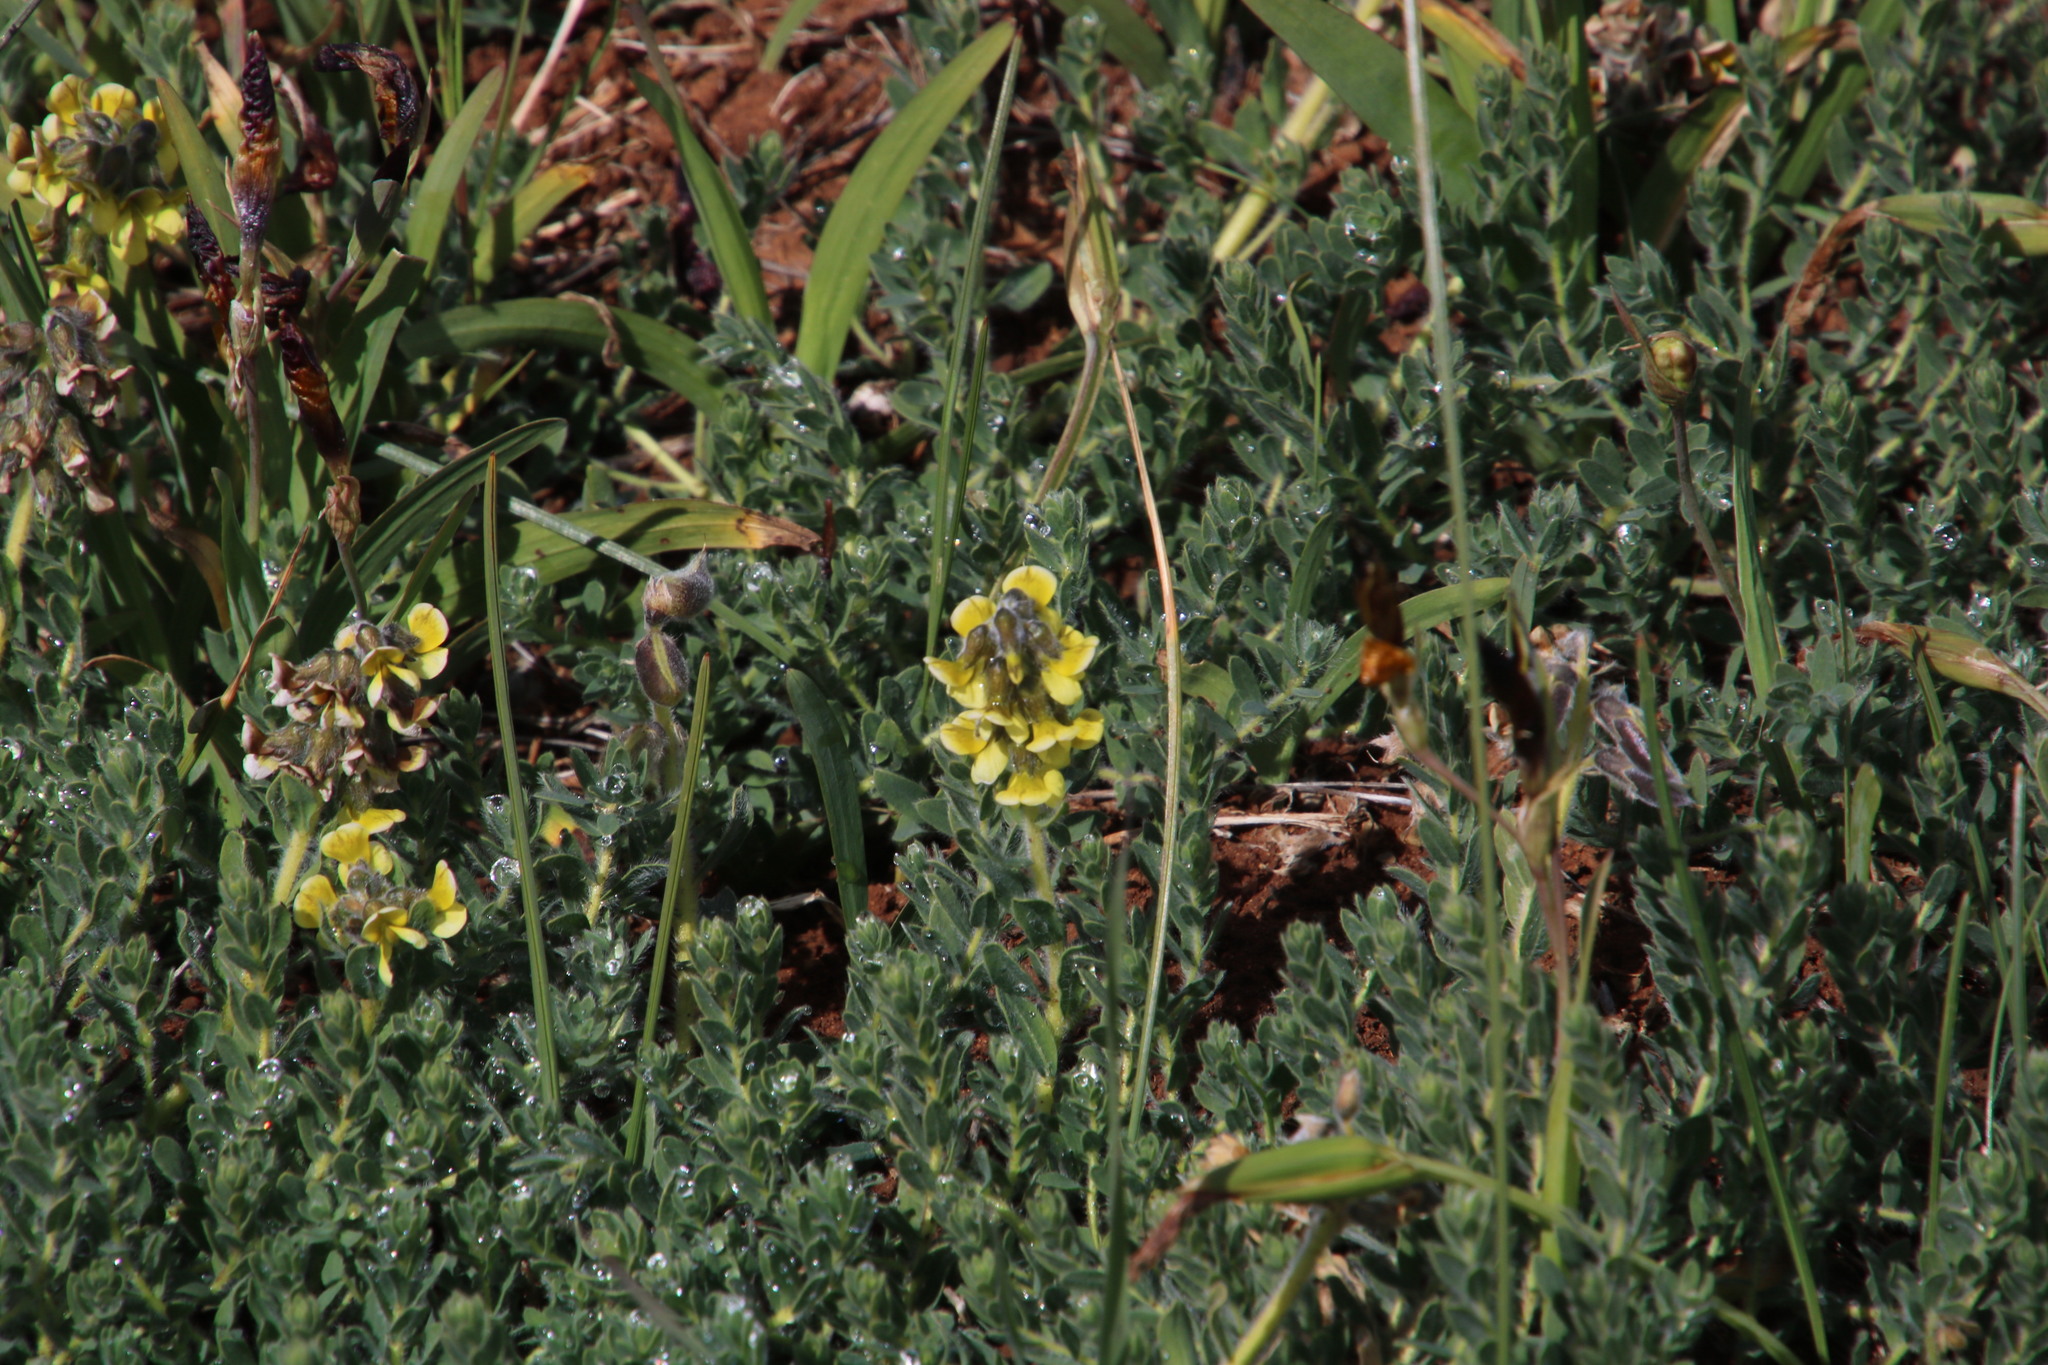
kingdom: Plantae
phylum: Tracheophyta
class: Magnoliopsida
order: Fabales
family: Fabaceae
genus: Euchlora
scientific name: Euchlora hirsuta
